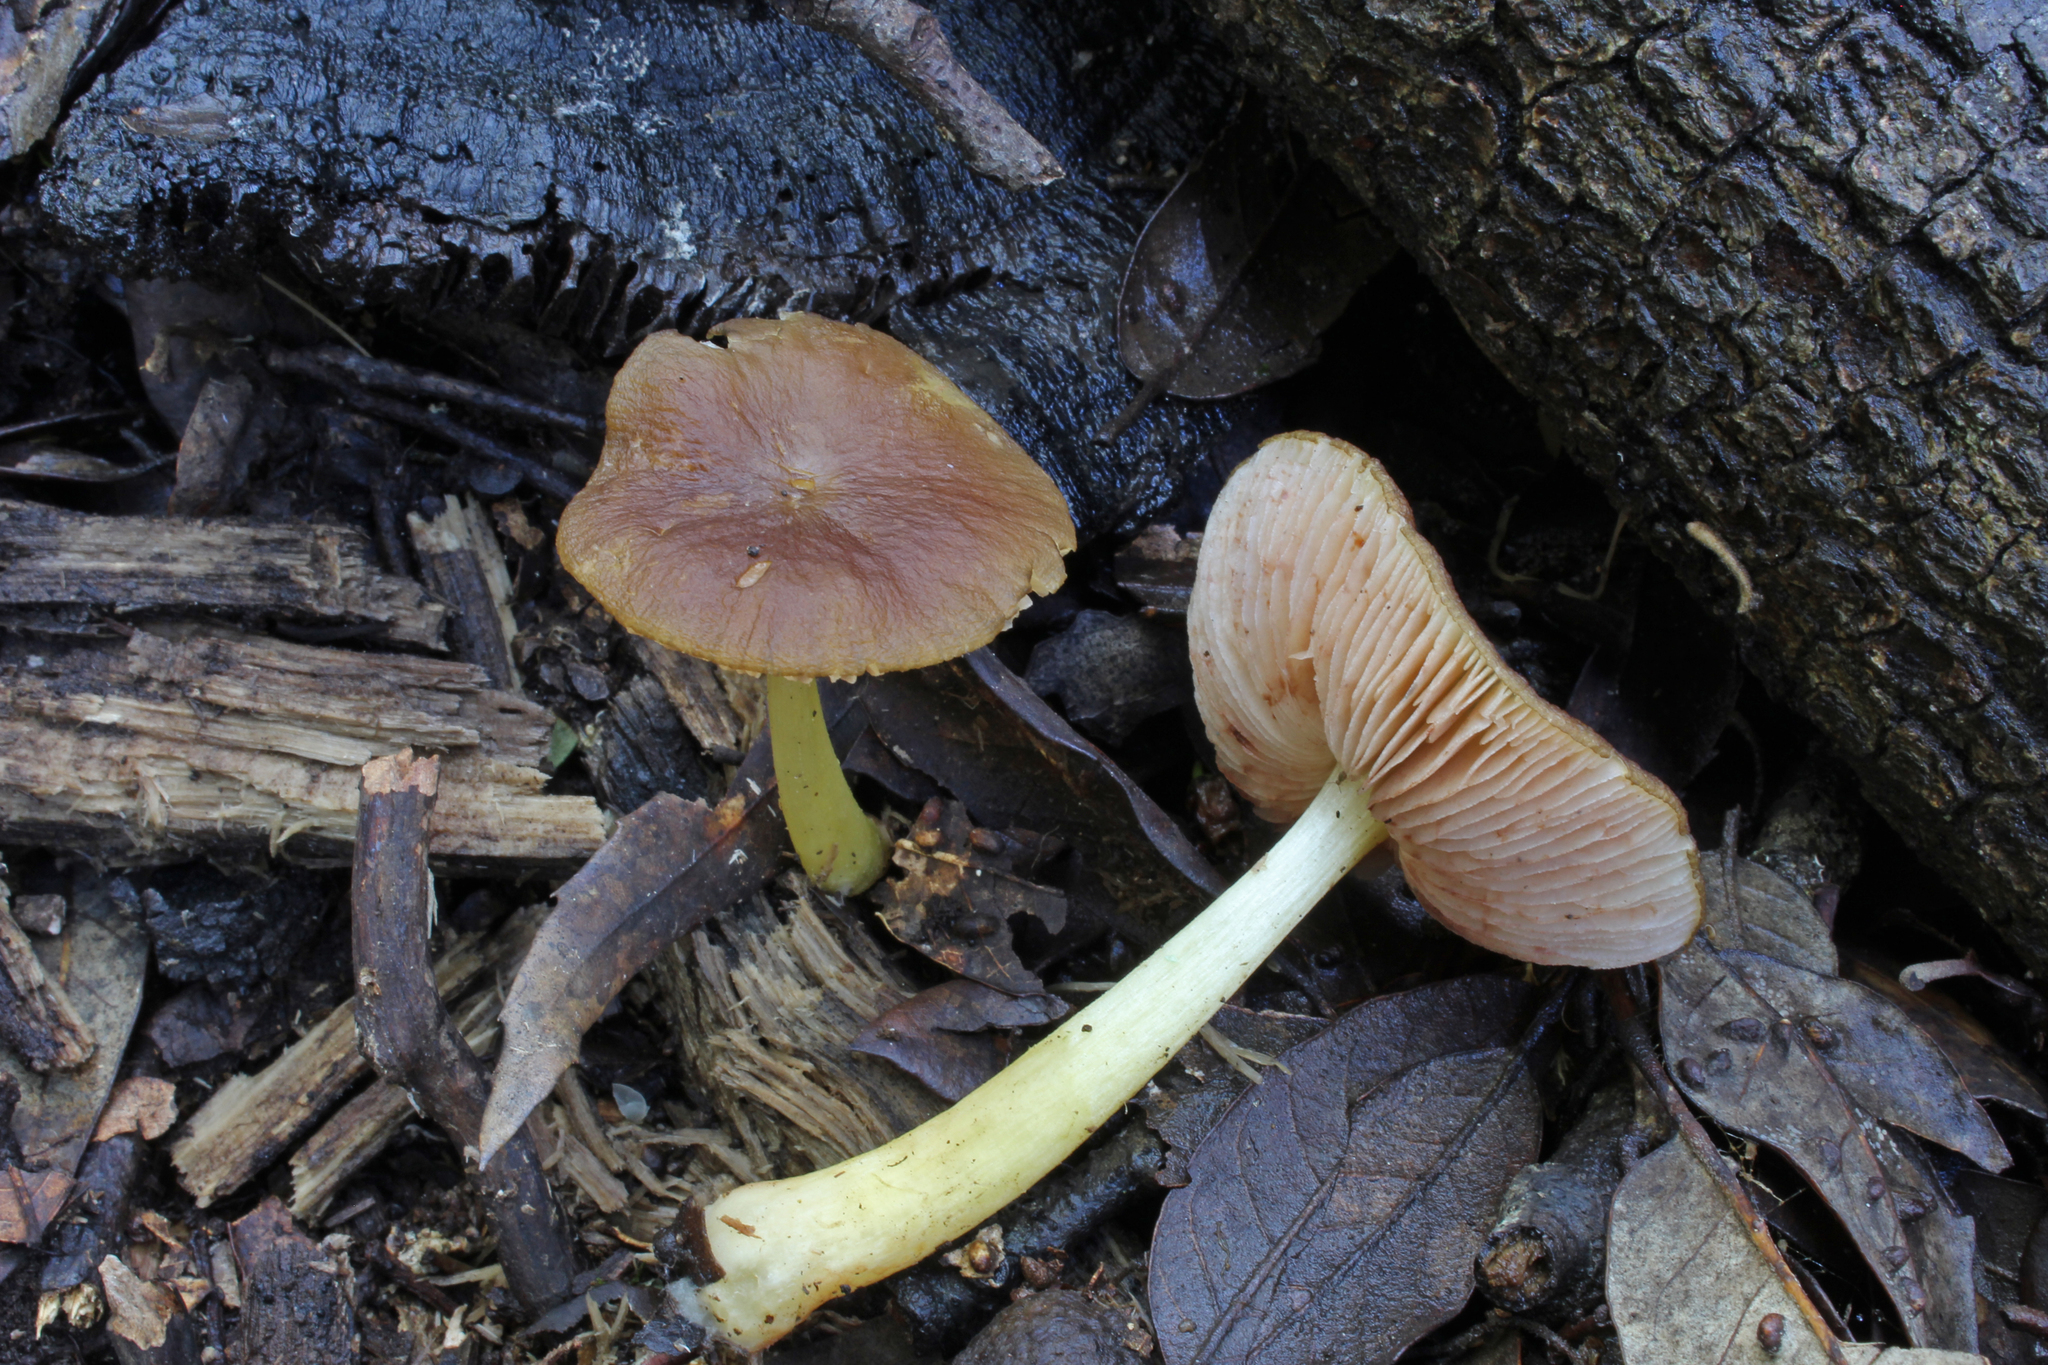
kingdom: Fungi
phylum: Basidiomycota
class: Agaricomycetes
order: Agaricales
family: Pluteaceae
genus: Pluteus
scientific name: Pluteus romellii
